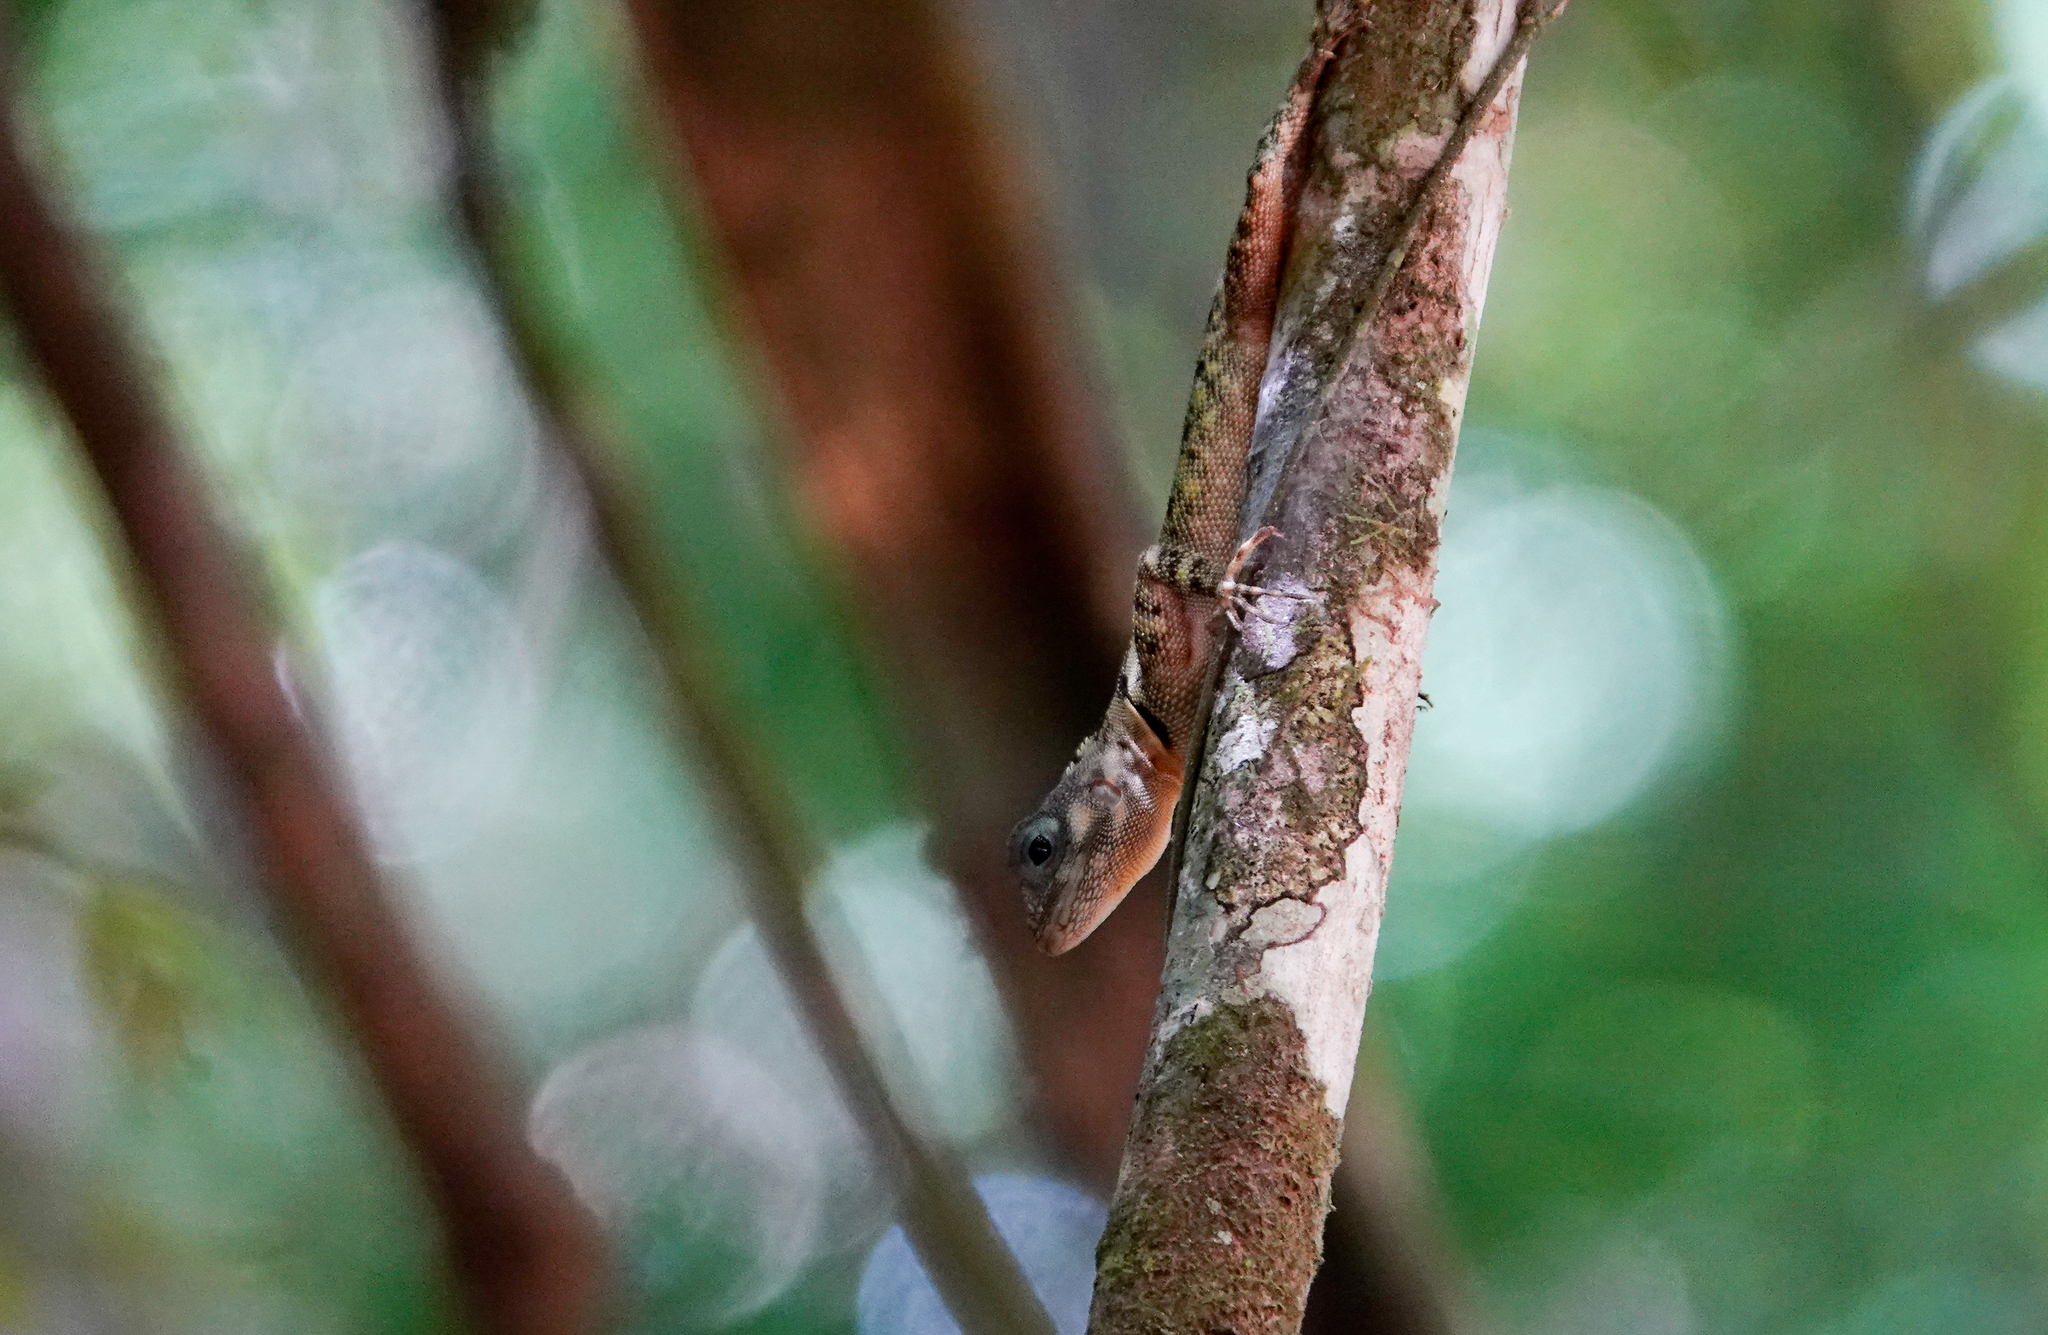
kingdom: Animalia
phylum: Chordata
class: Squamata
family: Tropiduridae
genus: Plica
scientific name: Plica plica
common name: Tree runner
